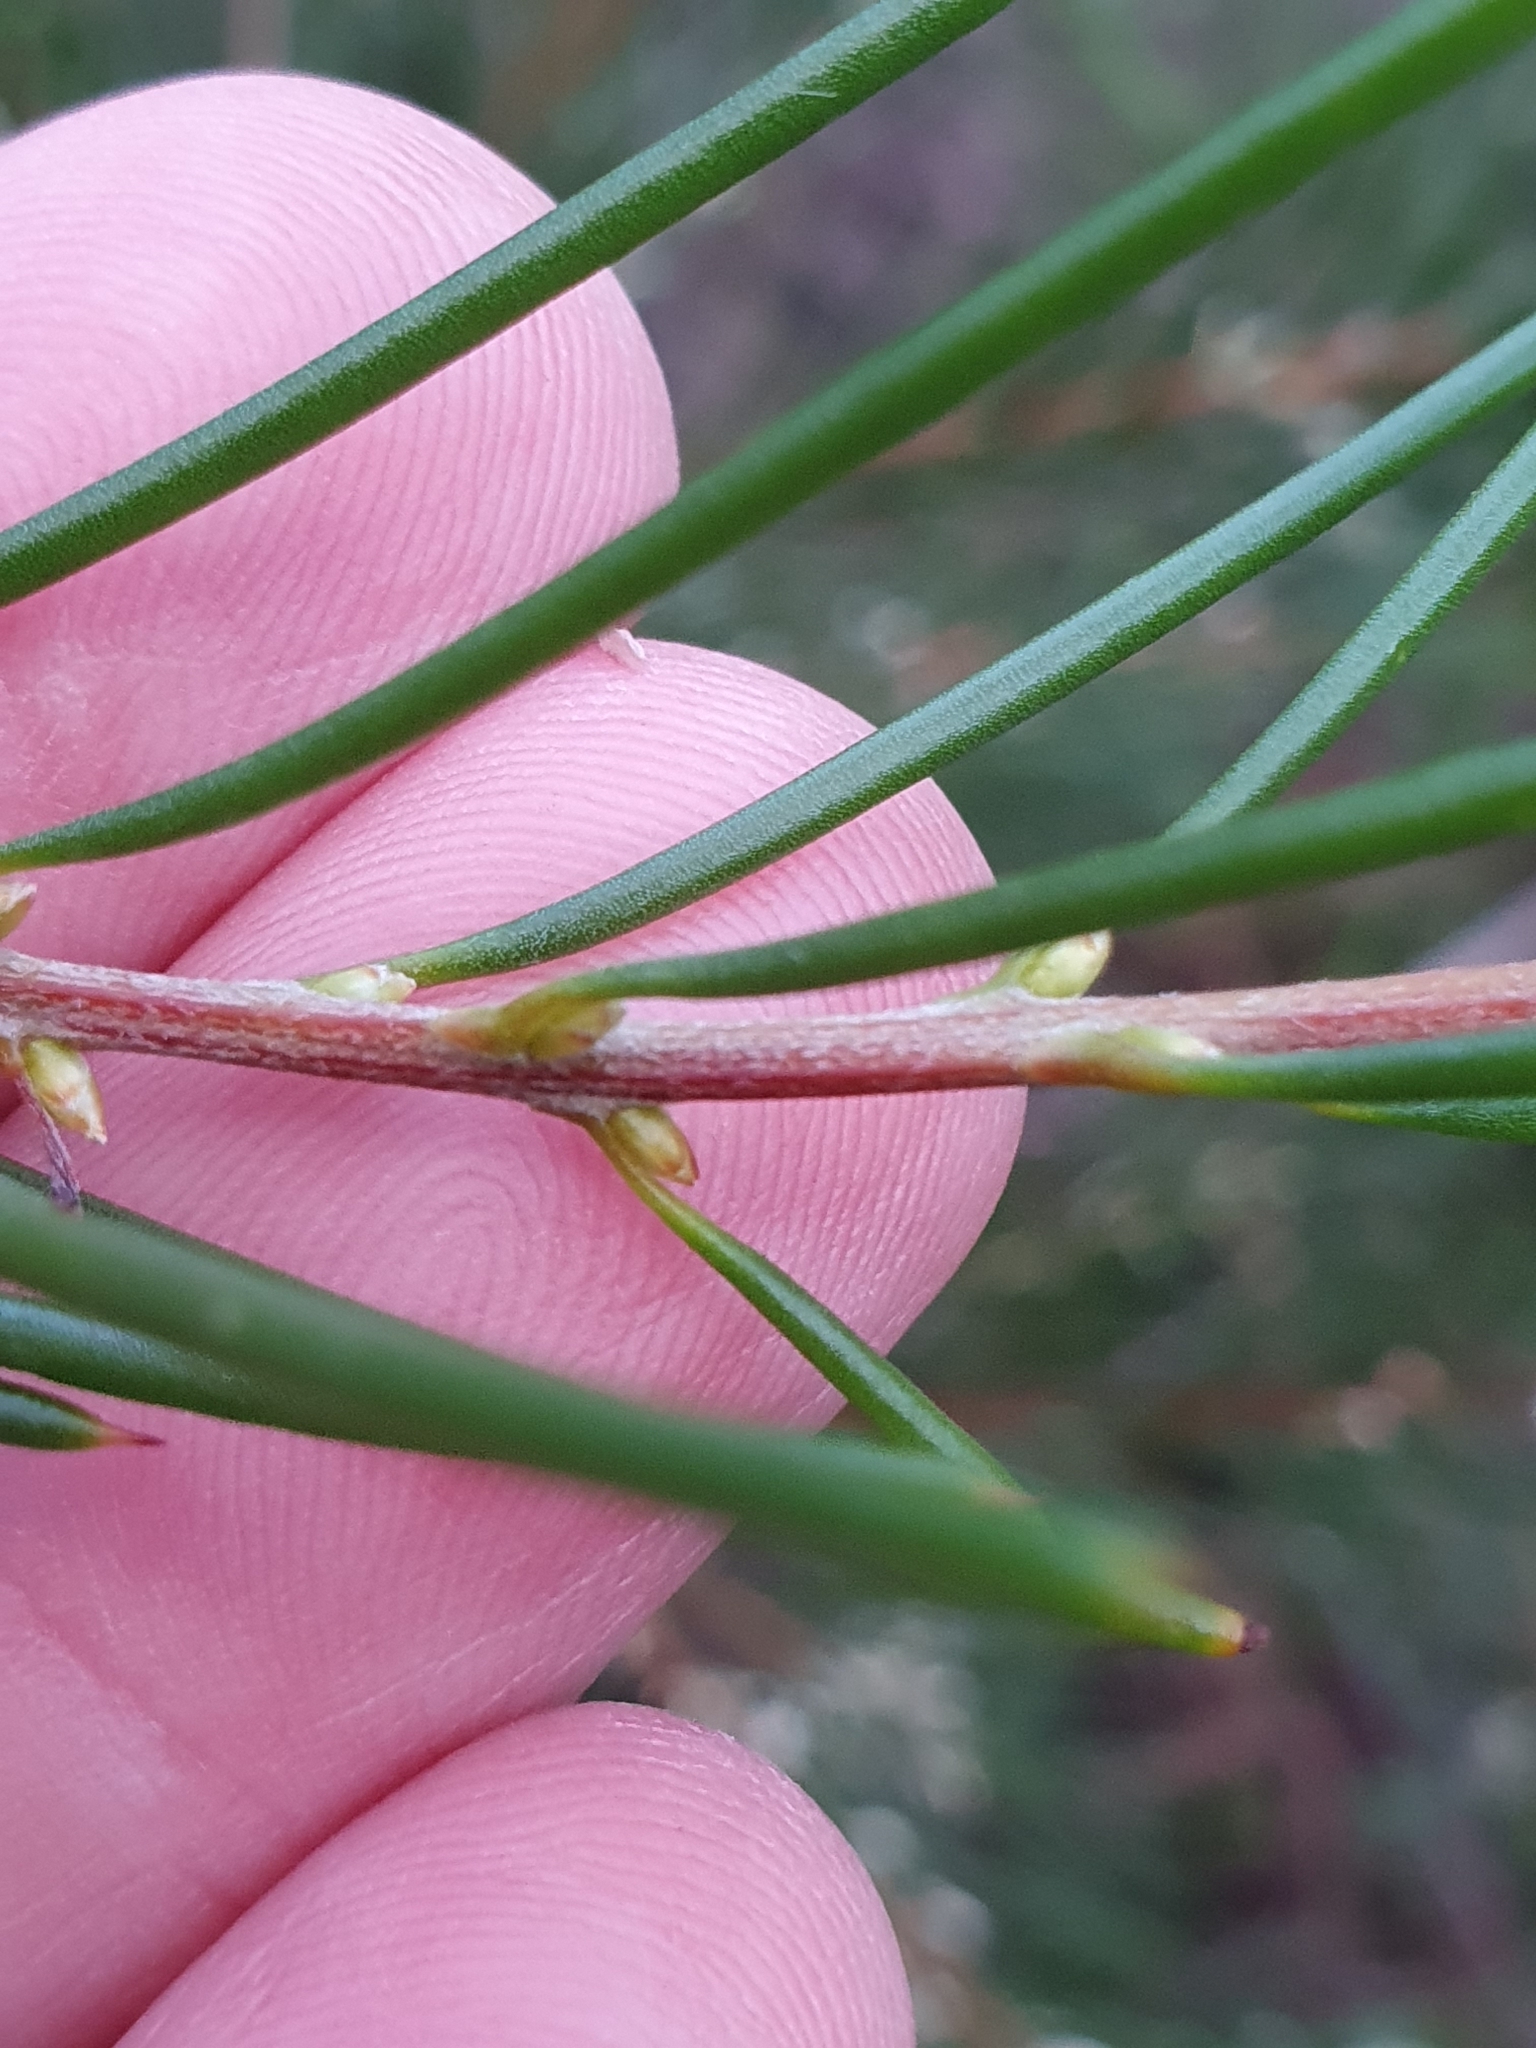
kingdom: Plantae
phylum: Tracheophyta
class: Magnoliopsida
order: Proteales
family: Proteaceae
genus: Hakea
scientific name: Hakea propinqua
